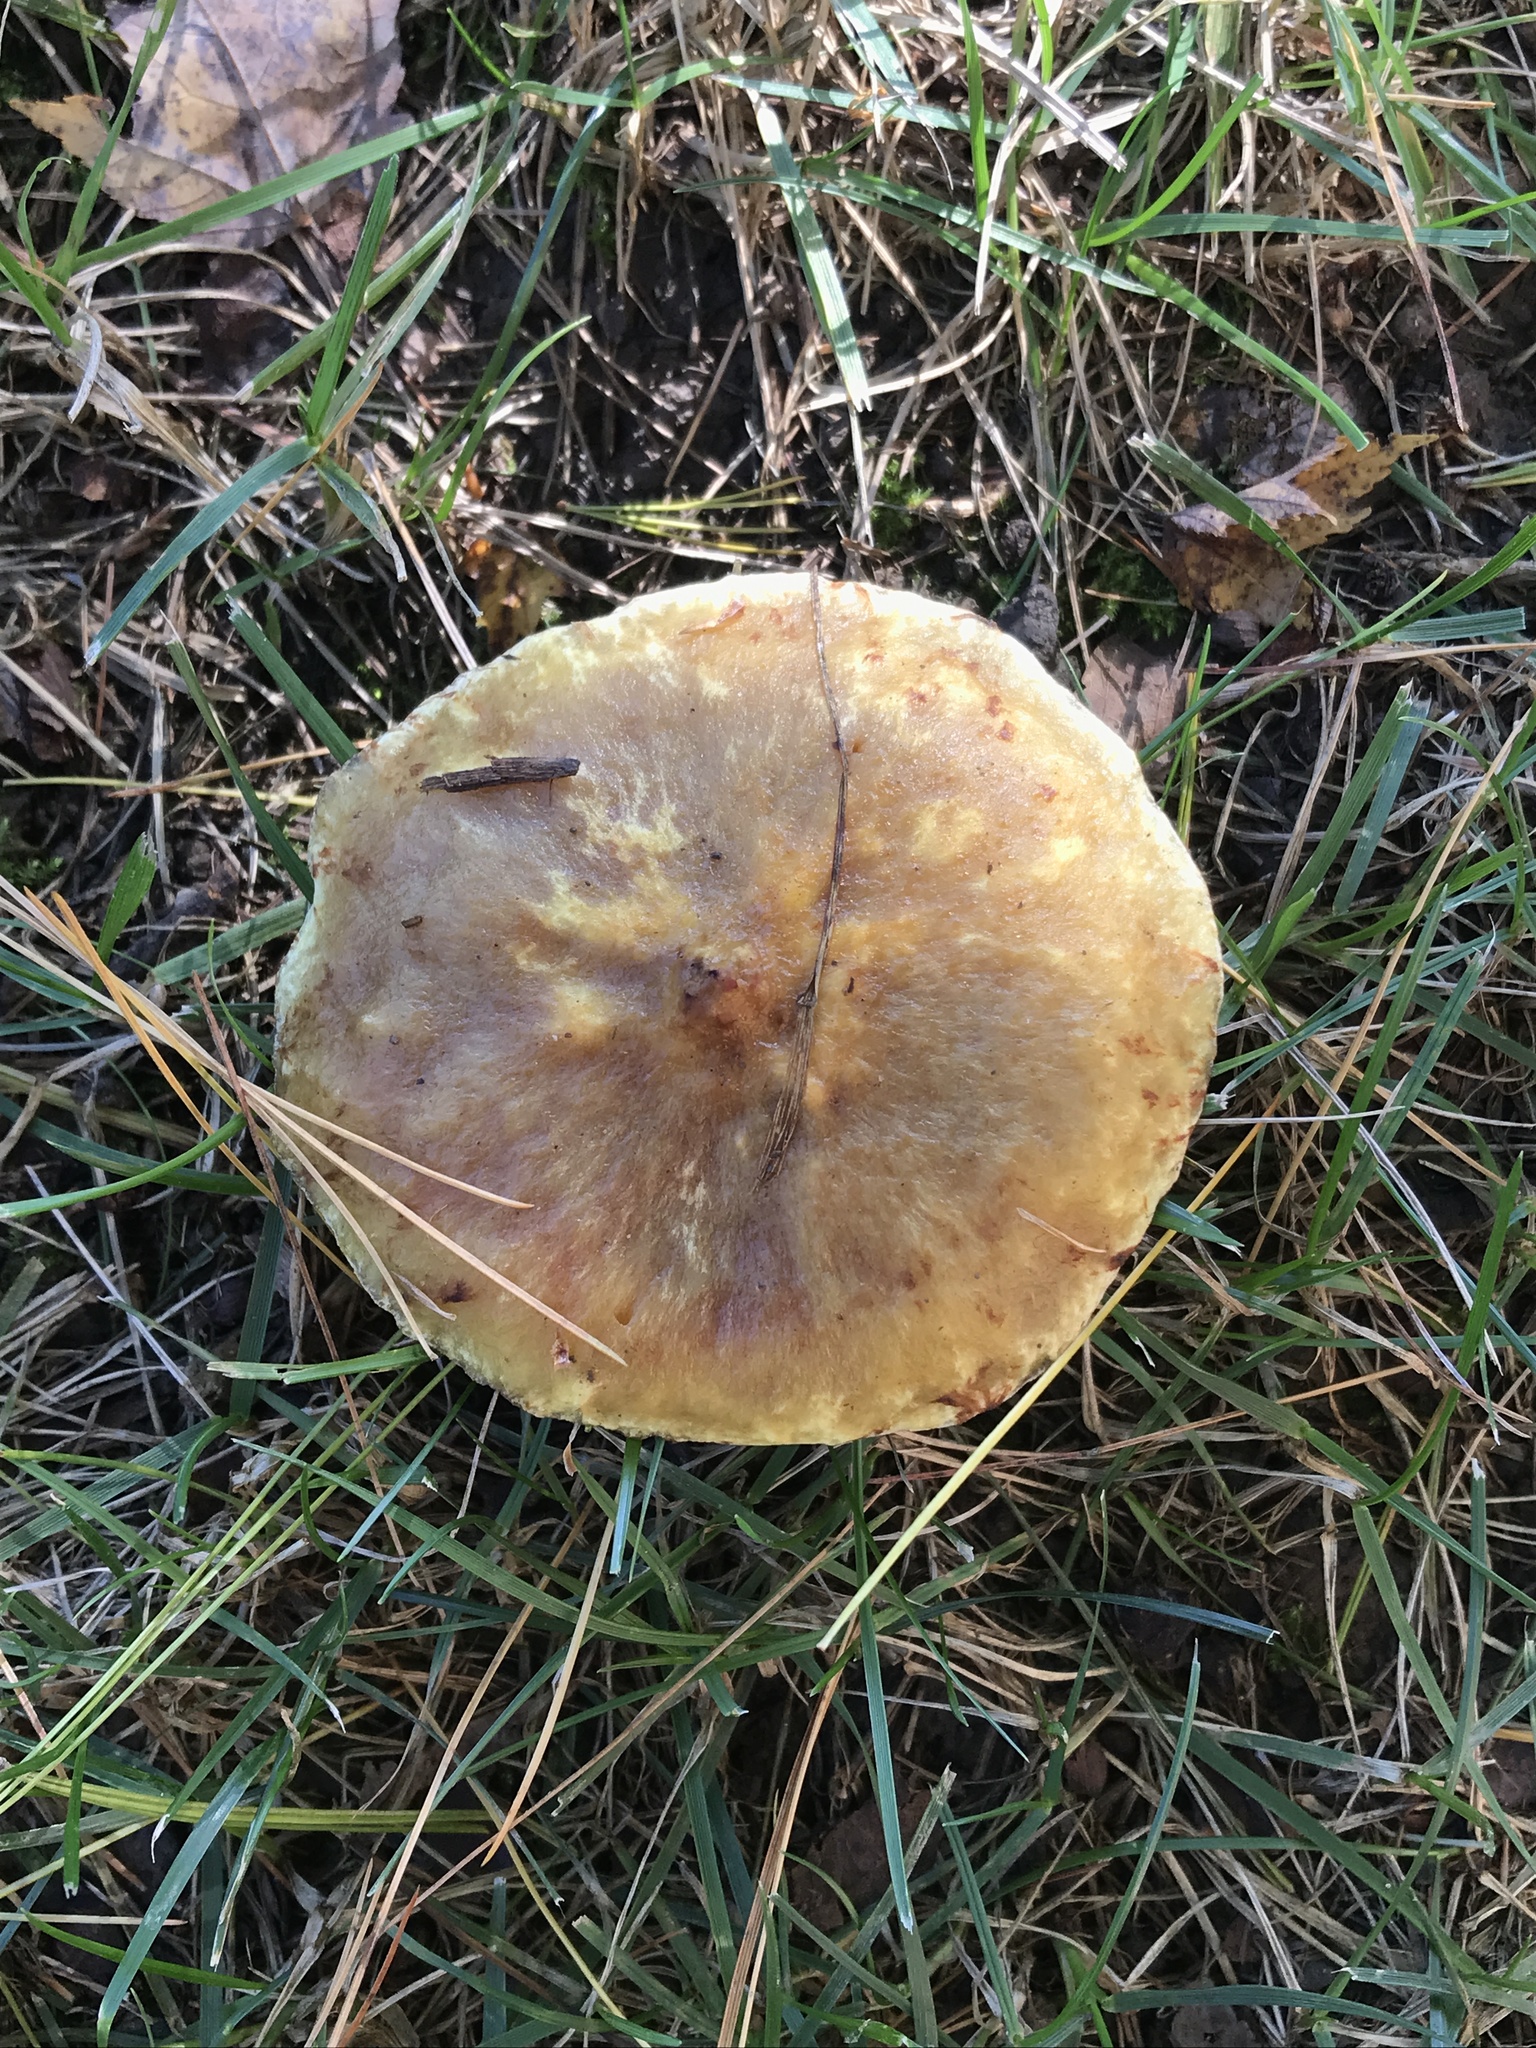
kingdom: Fungi
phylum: Basidiomycota
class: Agaricomycetes
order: Boletales
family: Suillaceae
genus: Suillus
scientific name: Suillus americanus
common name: Chicken fat mushroom
